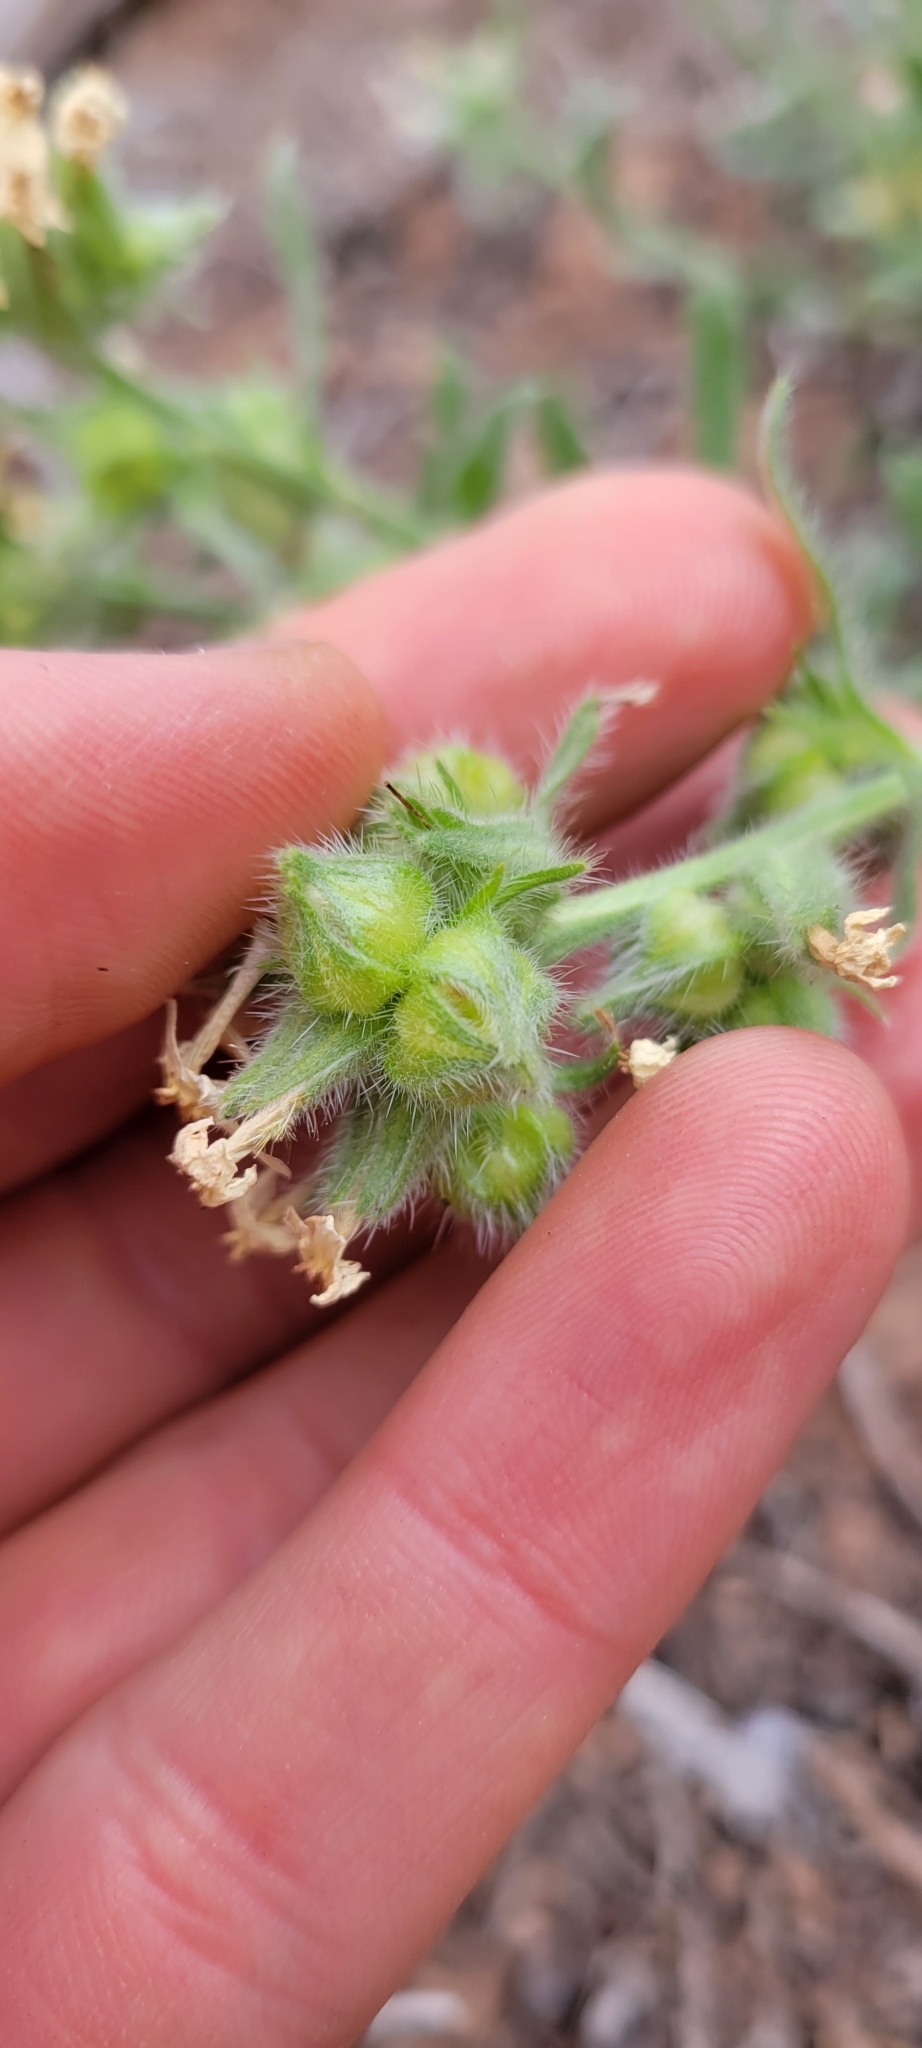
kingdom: Plantae
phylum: Tracheophyta
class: Magnoliopsida
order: Boraginales
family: Boraginaceae
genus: Oreocarya
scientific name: Oreocarya flavoculata
